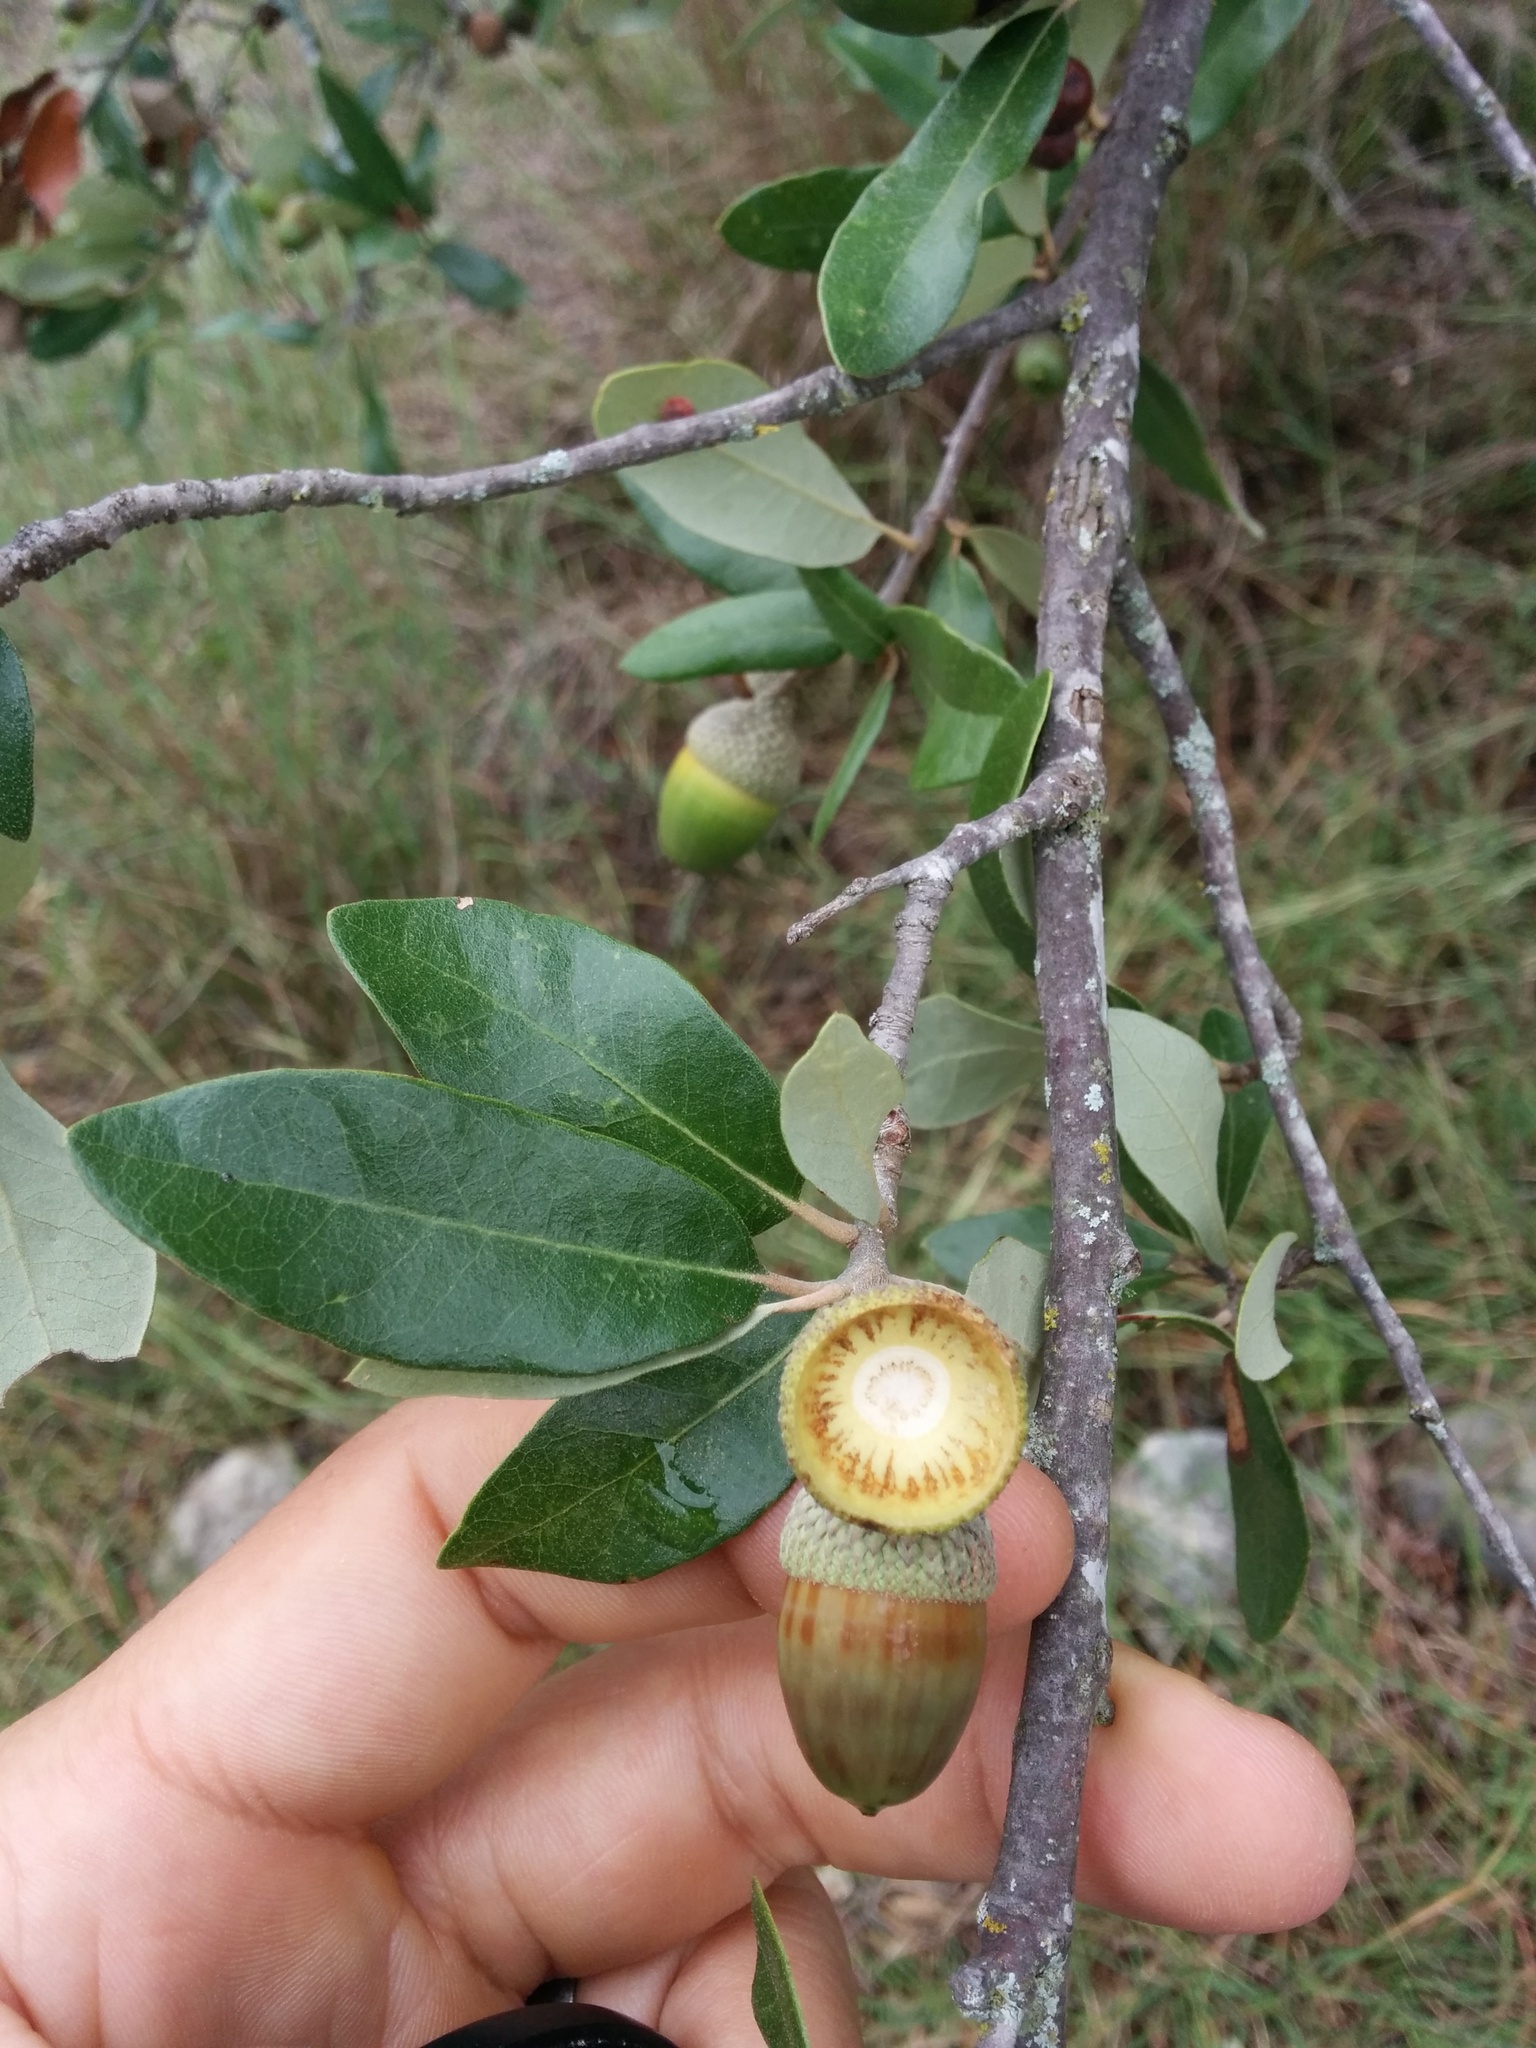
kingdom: Plantae
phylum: Tracheophyta
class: Magnoliopsida
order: Fagales
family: Fagaceae
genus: Quercus
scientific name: Quercus virginiana
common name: Southern live oak
